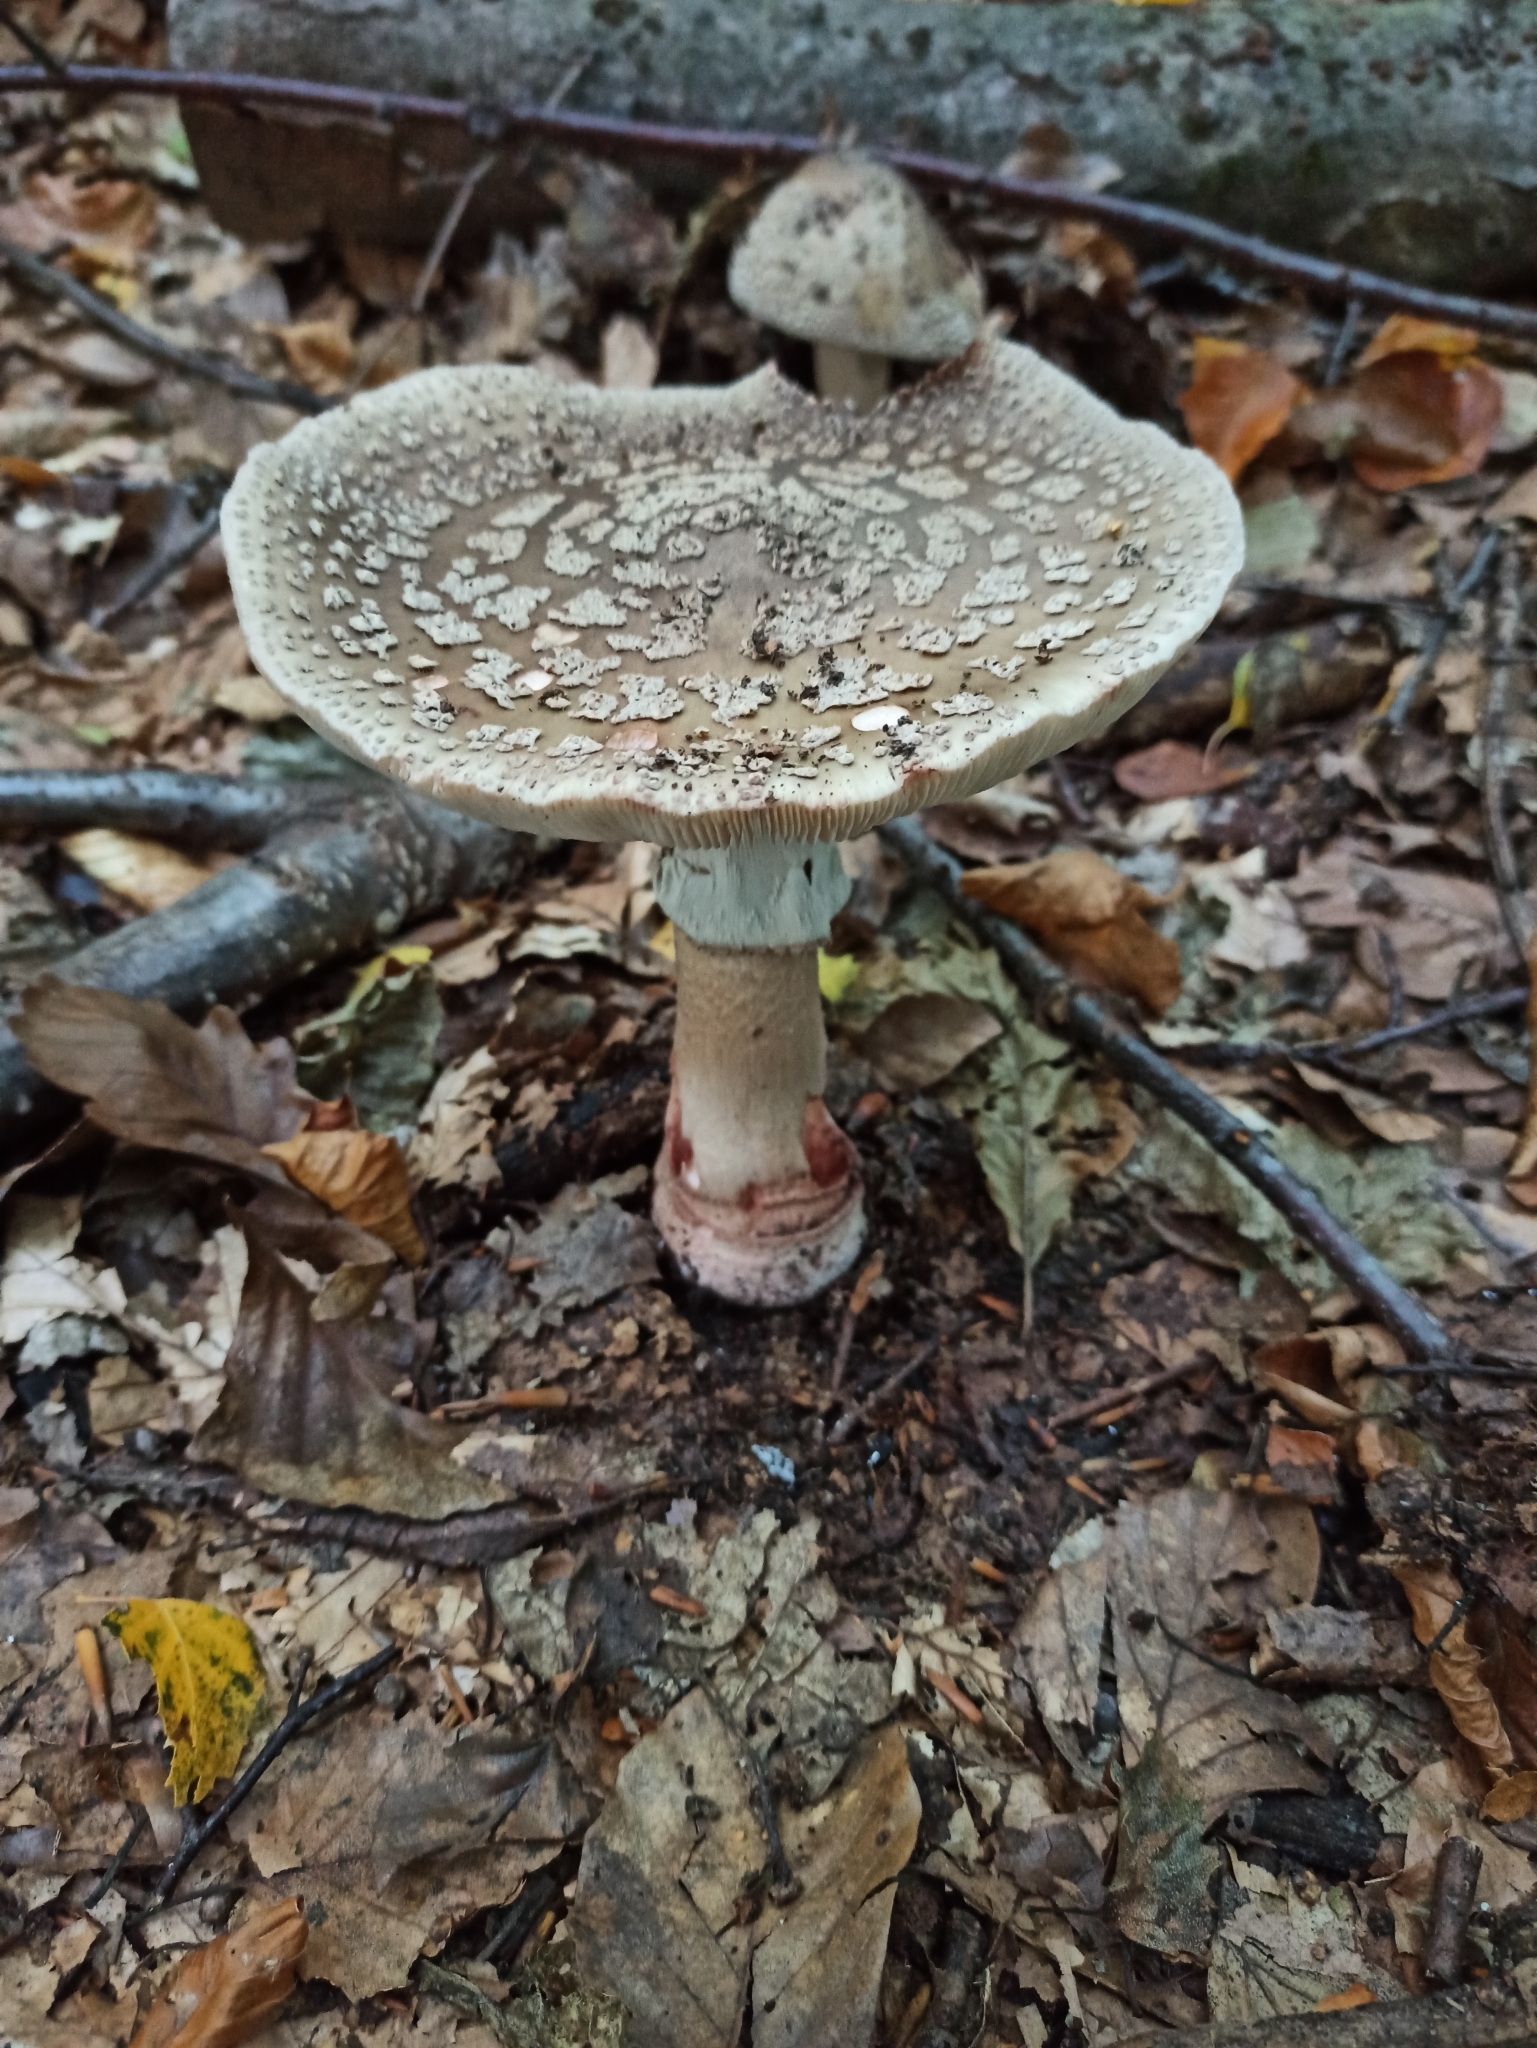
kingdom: Fungi
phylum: Basidiomycota
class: Agaricomycetes
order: Agaricales
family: Amanitaceae
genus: Amanita
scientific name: Amanita rubescens
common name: Blusher
